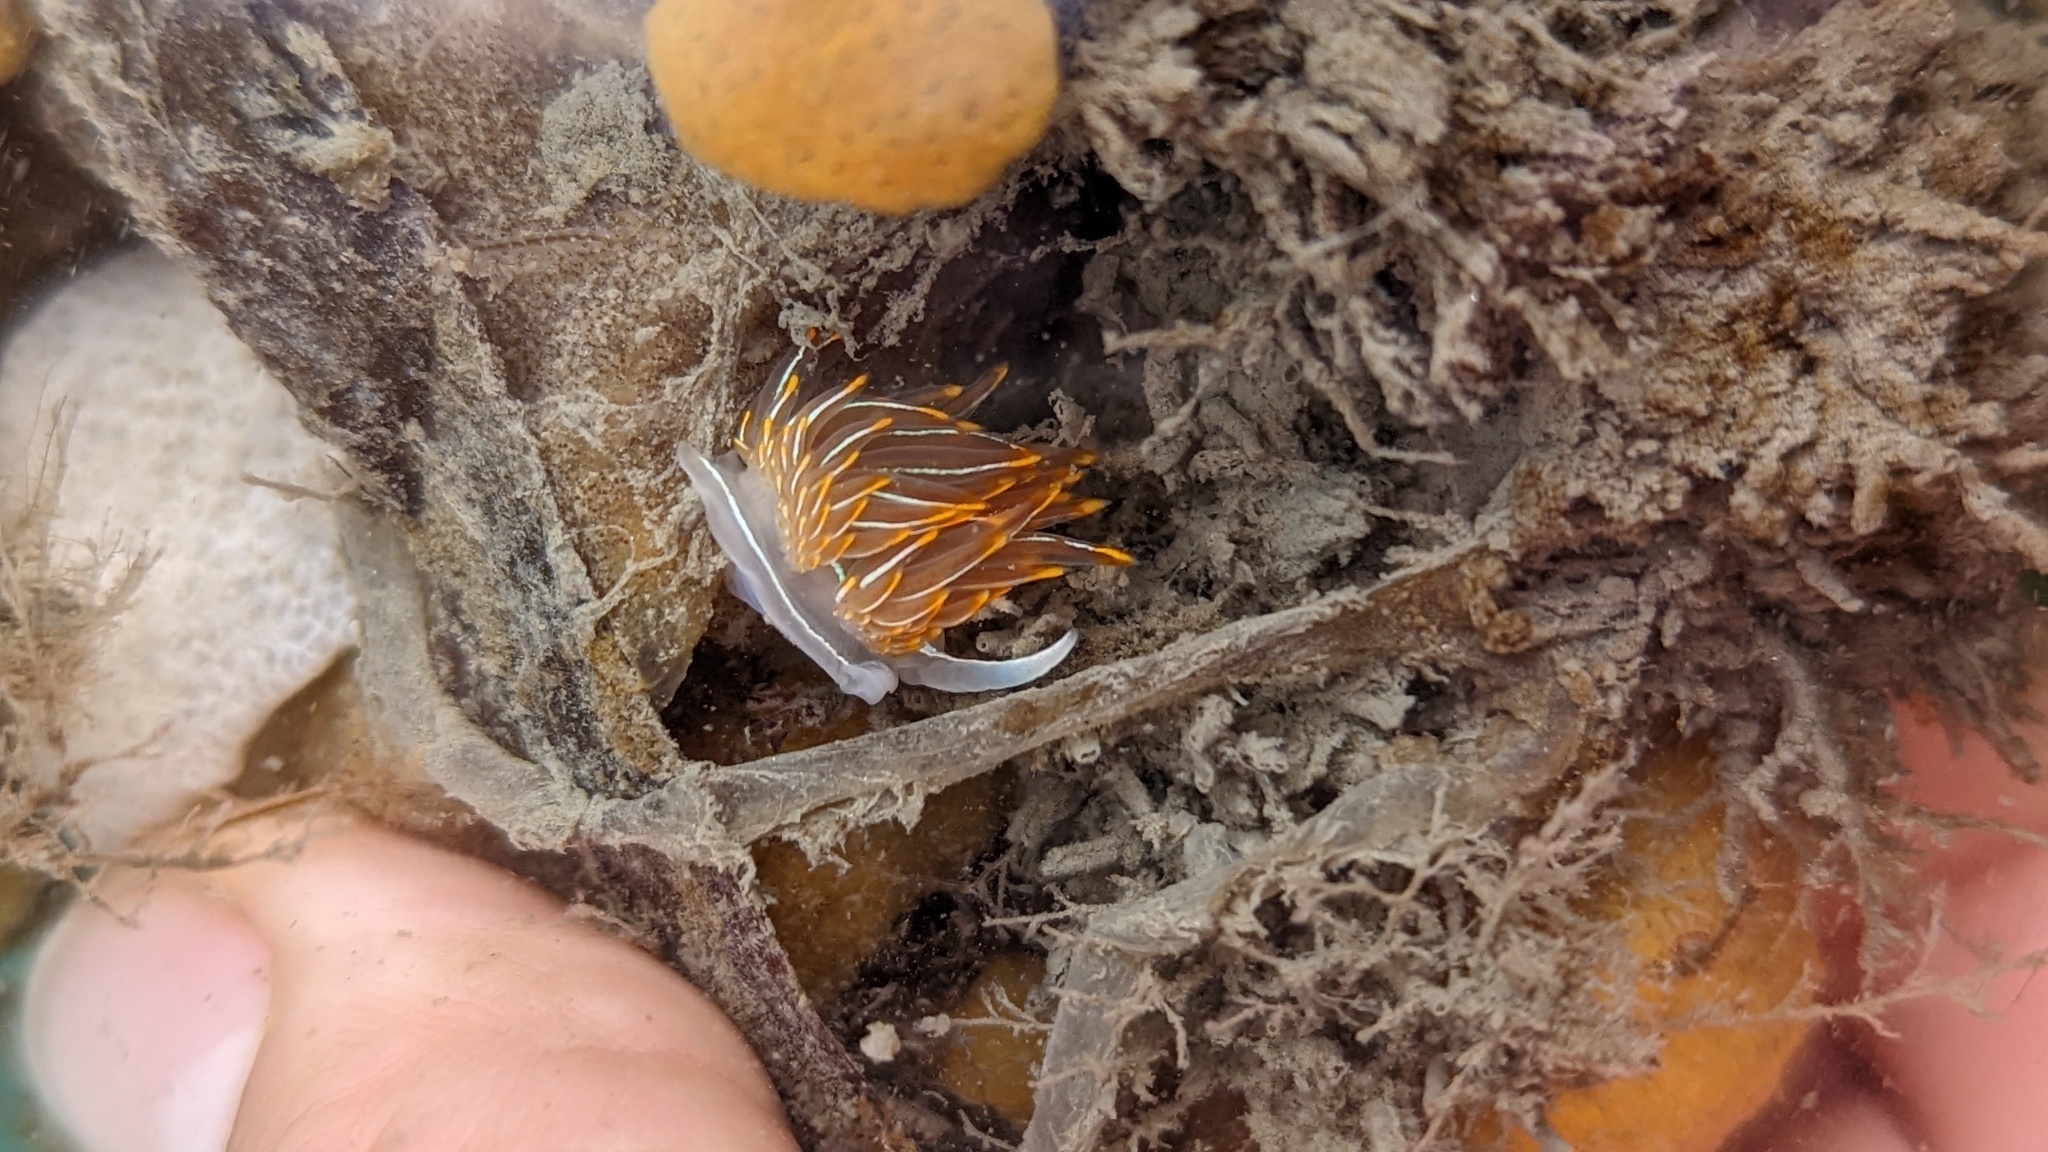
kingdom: Animalia
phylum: Mollusca
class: Gastropoda
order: Nudibranchia
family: Myrrhinidae
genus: Hermissenda
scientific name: Hermissenda crassicornis
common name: Hermissenda
